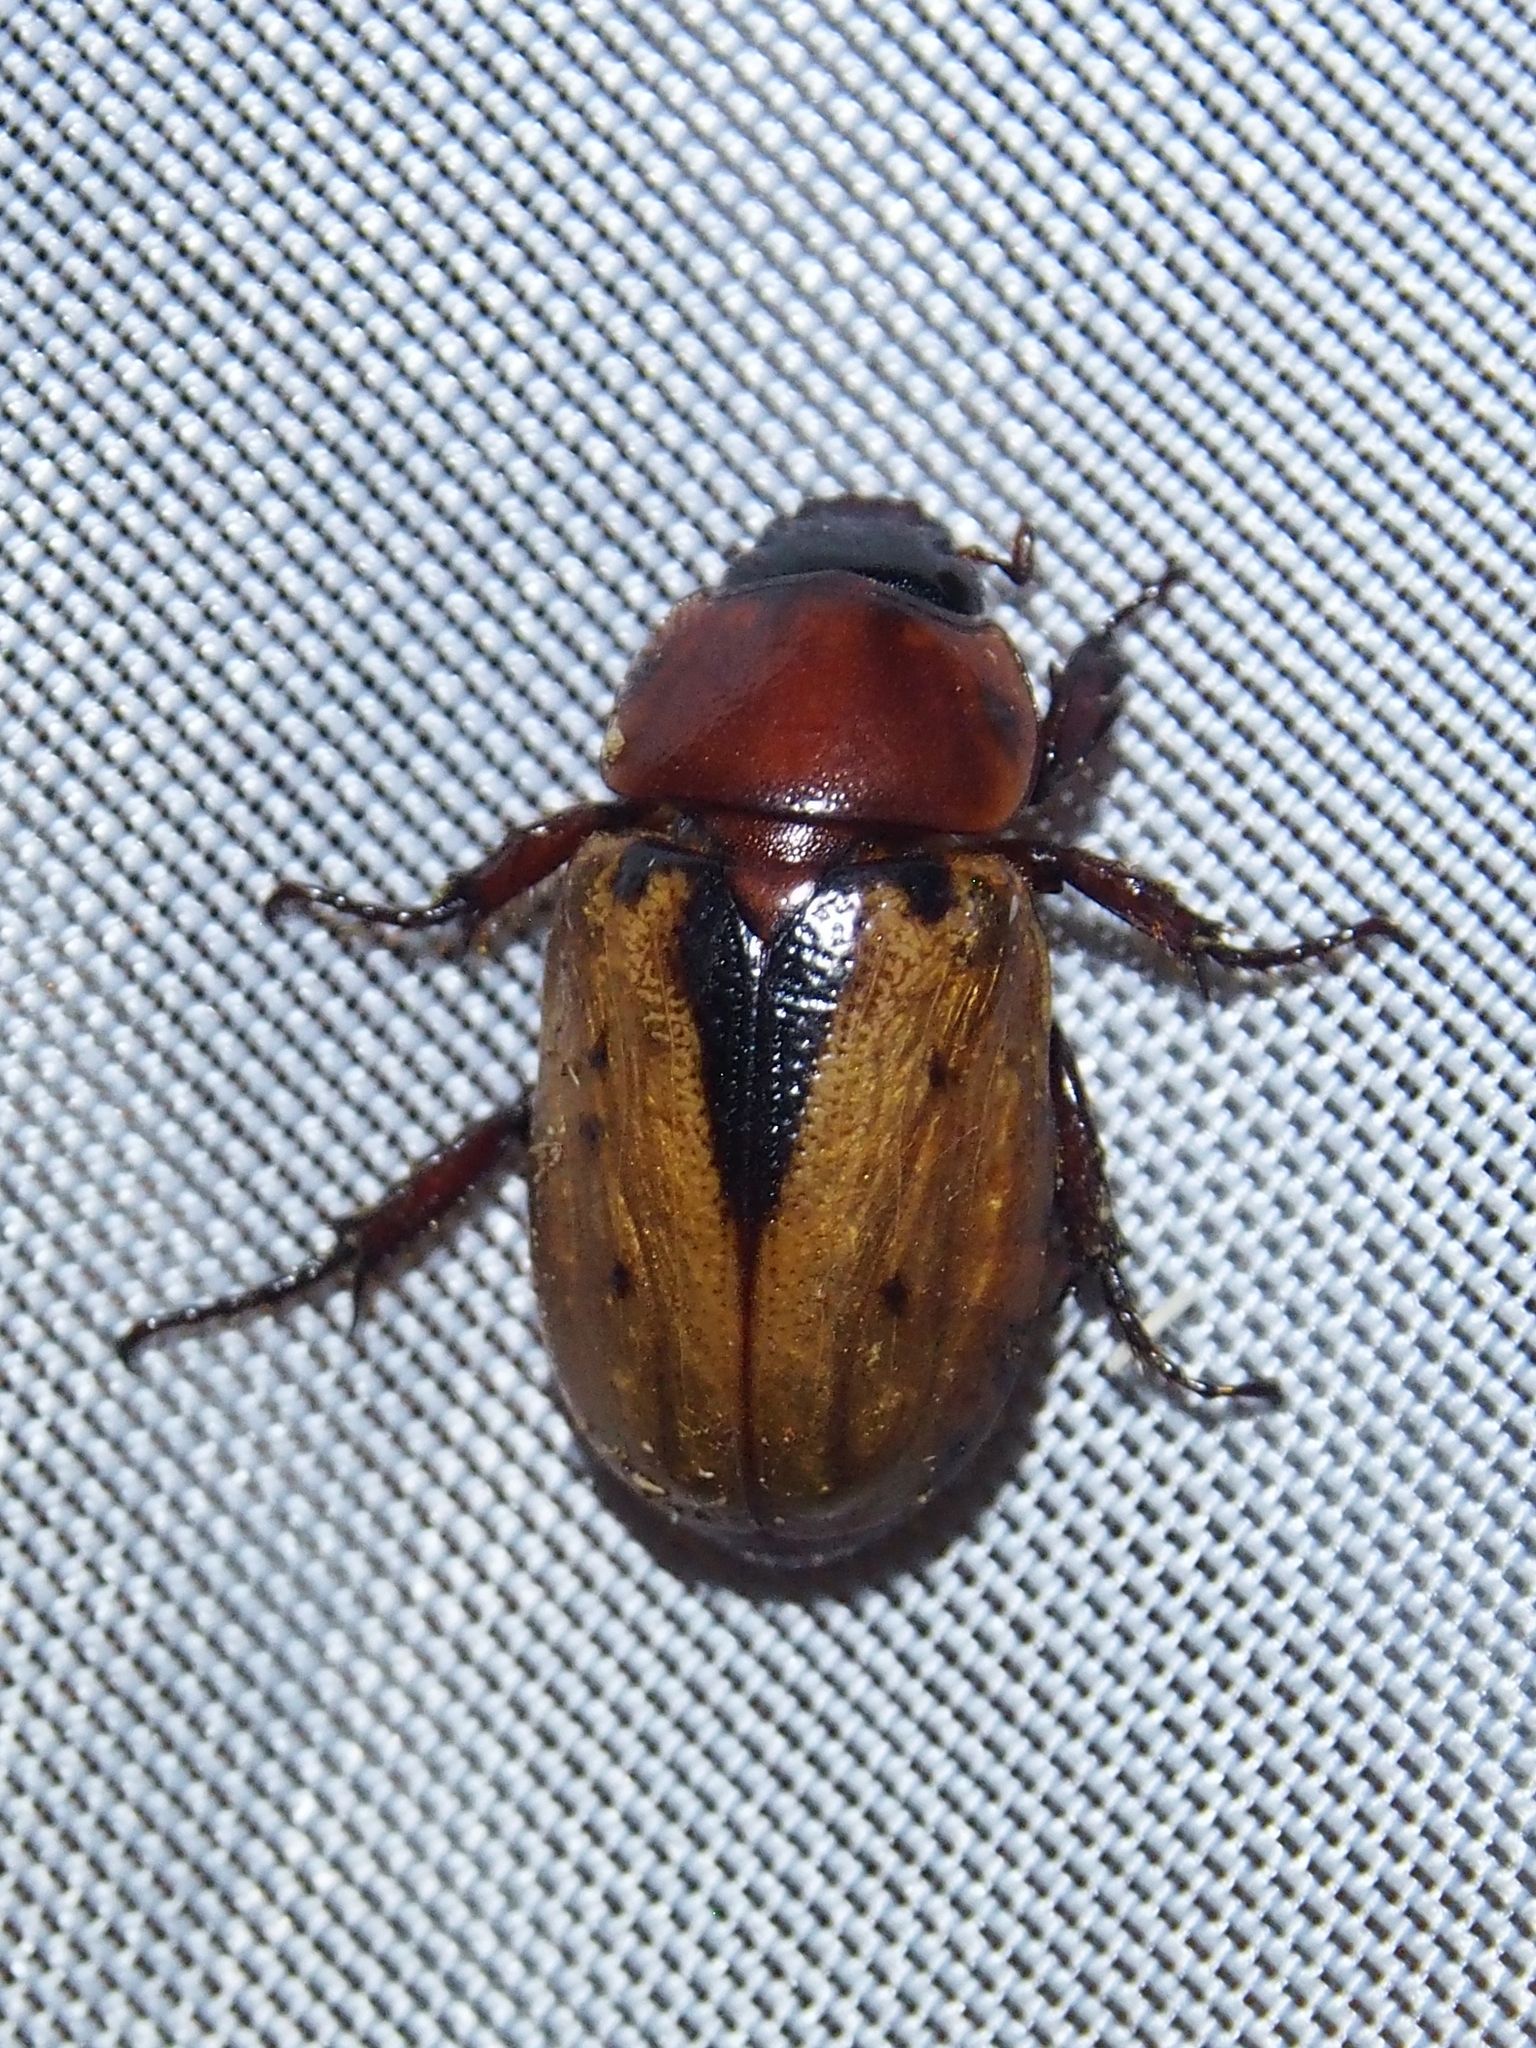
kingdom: Animalia
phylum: Arthropoda
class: Insecta
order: Coleoptera
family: Scarabaeidae
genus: Cyclocephala
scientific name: Cyclocephala porioni
